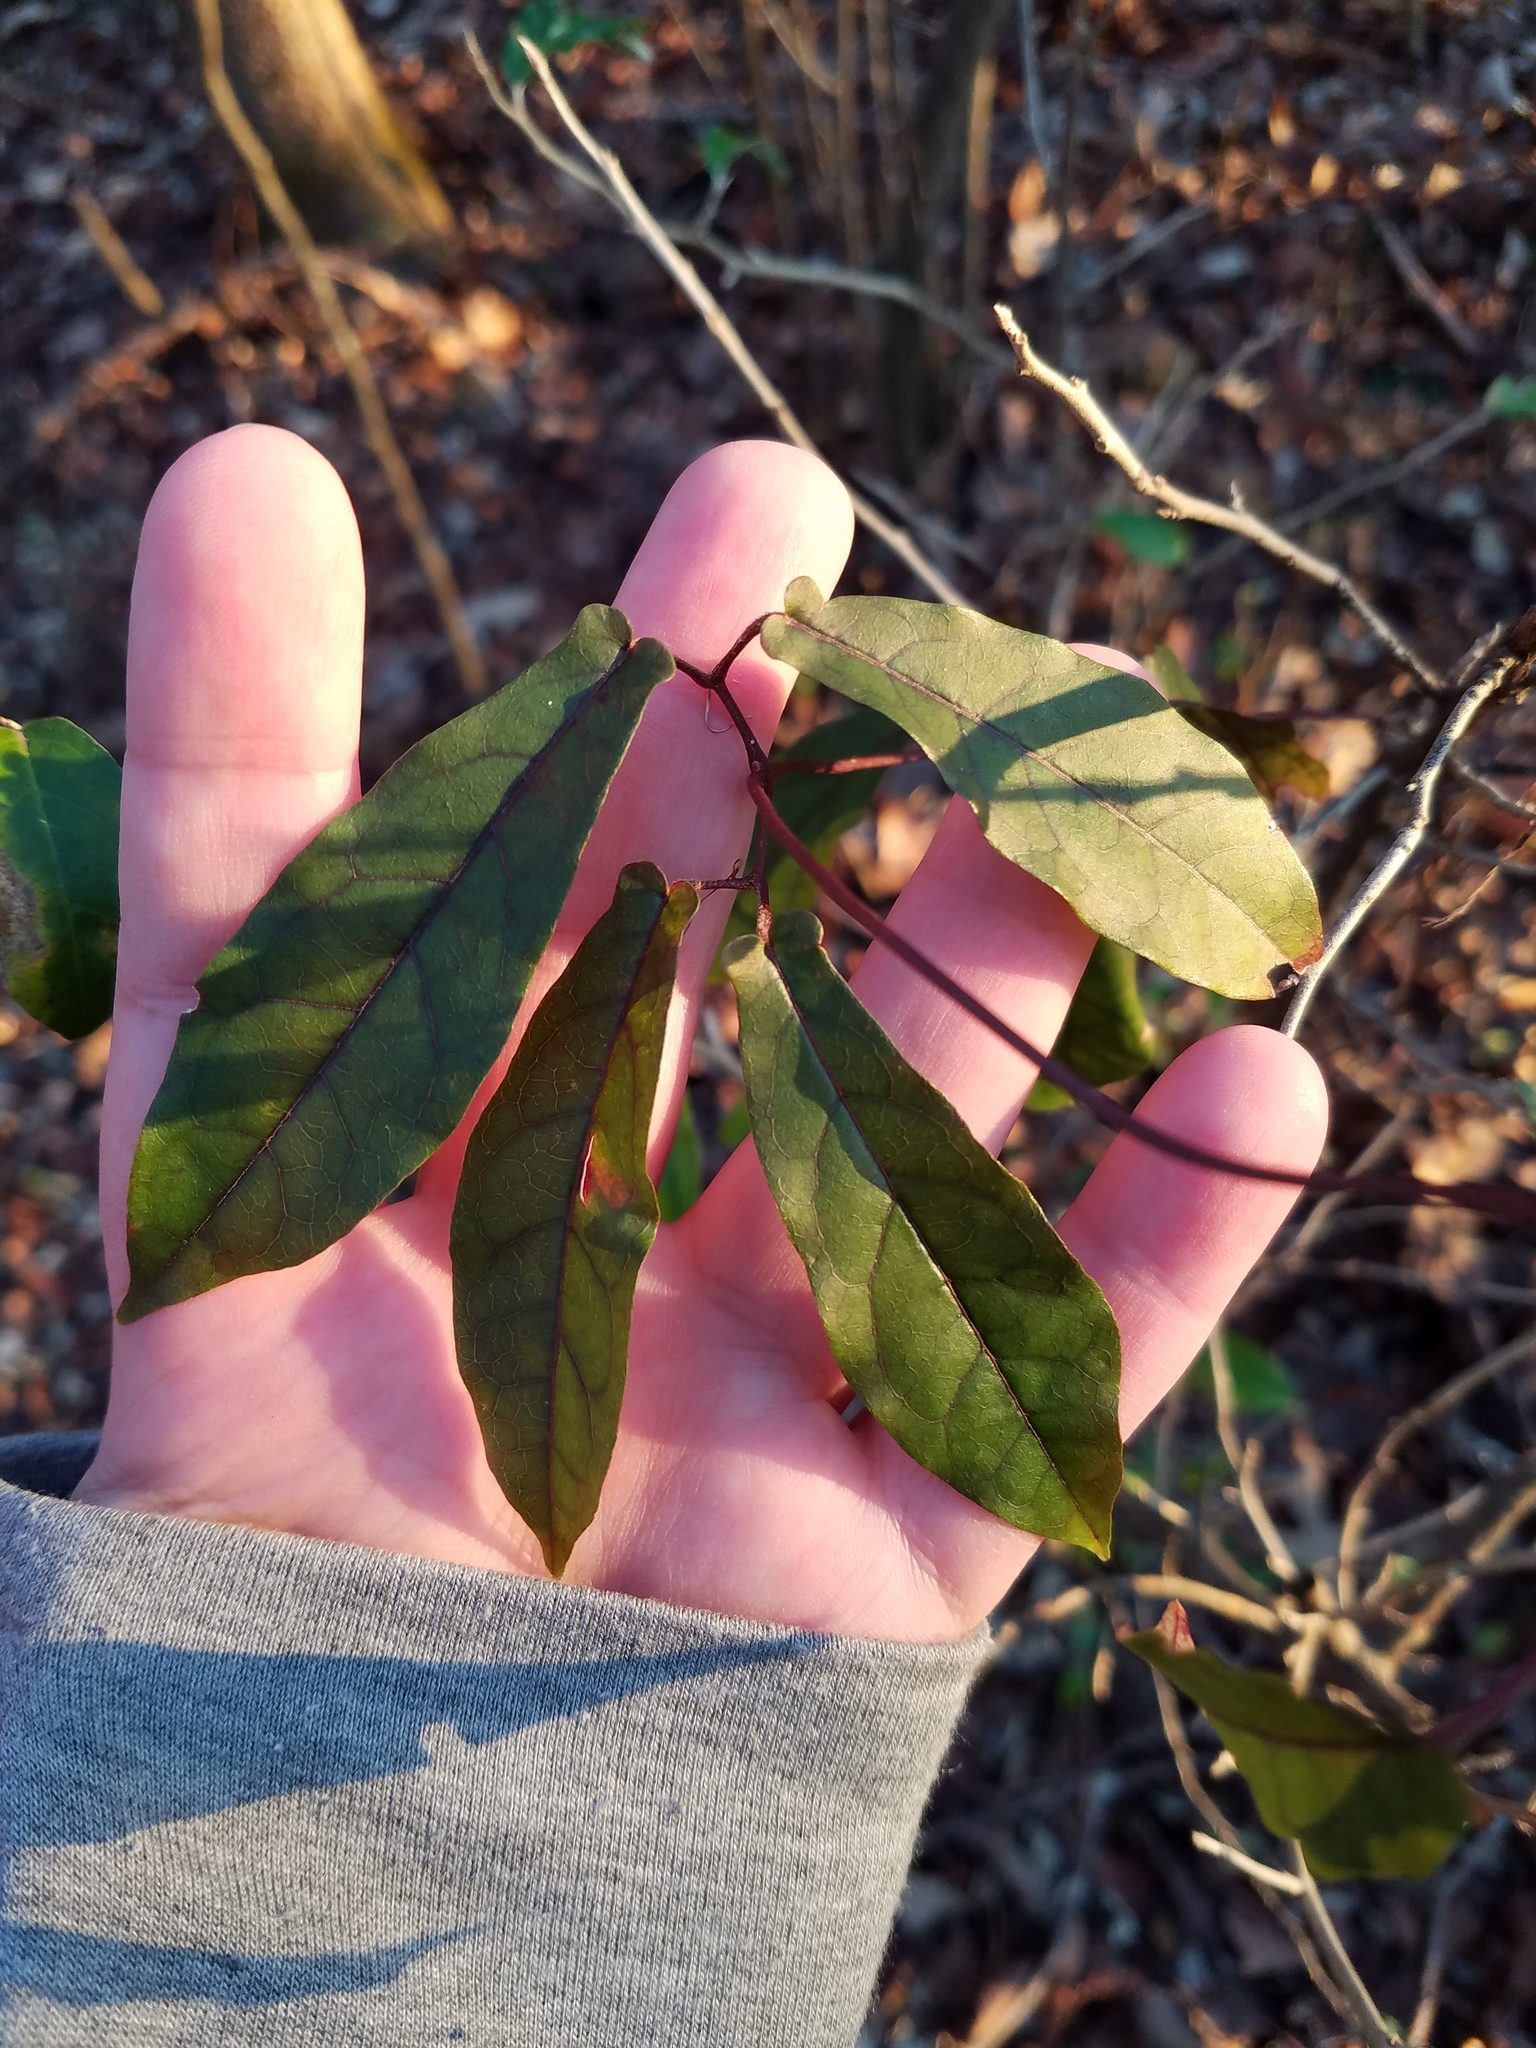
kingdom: Plantae
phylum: Tracheophyta
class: Magnoliopsida
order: Lamiales
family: Bignoniaceae
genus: Bignonia
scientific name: Bignonia capreolata
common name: Crossvine
